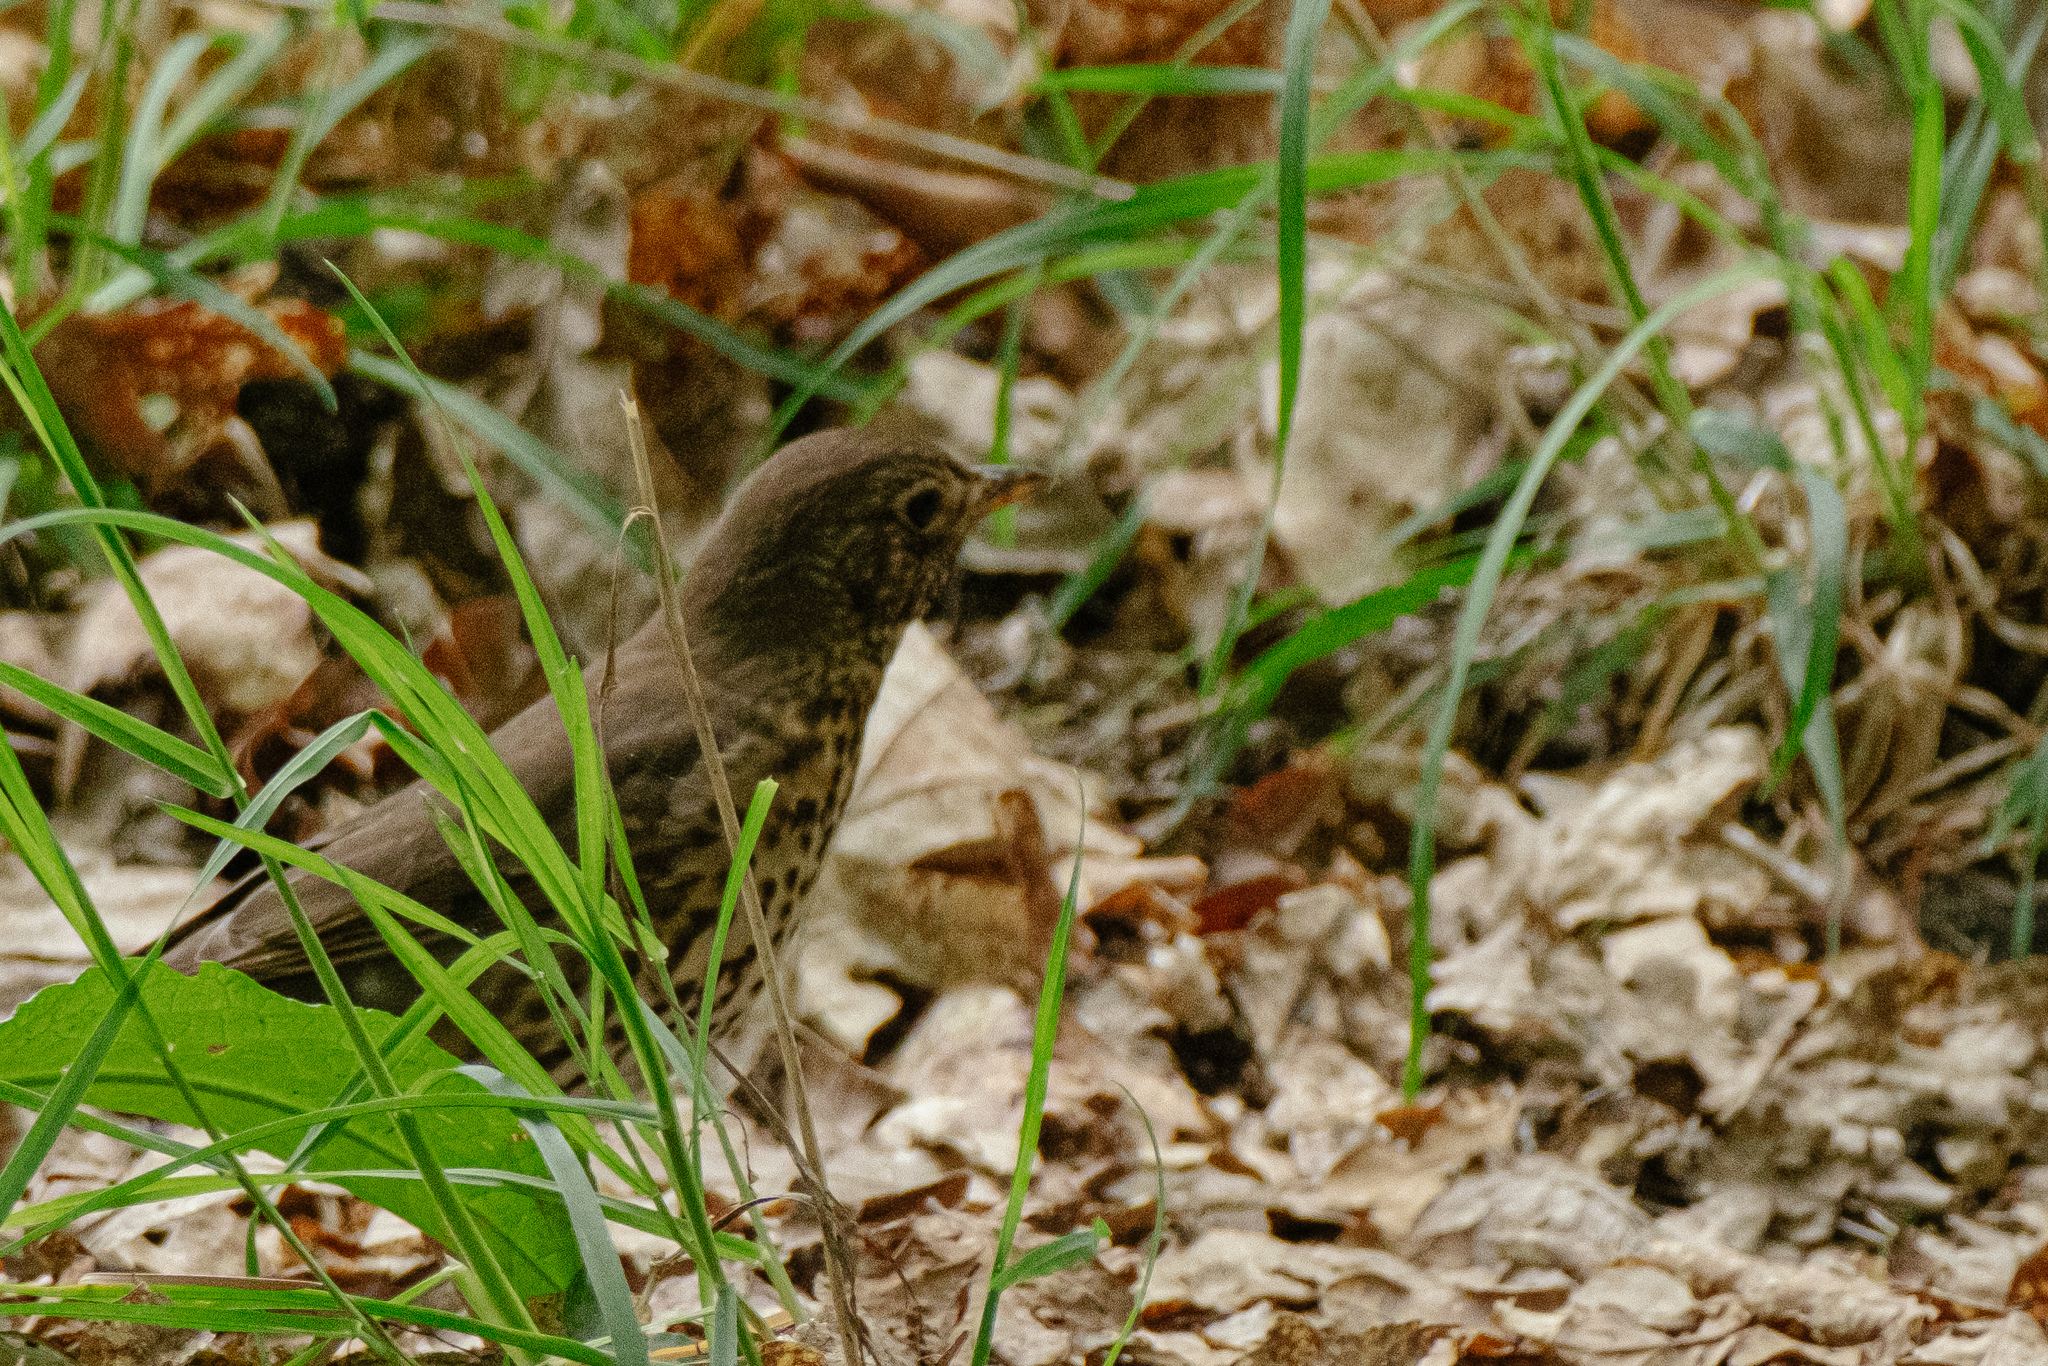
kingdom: Animalia
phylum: Chordata
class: Aves
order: Passeriformes
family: Turdidae
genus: Turdus
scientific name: Turdus philomelos
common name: Song thrush
